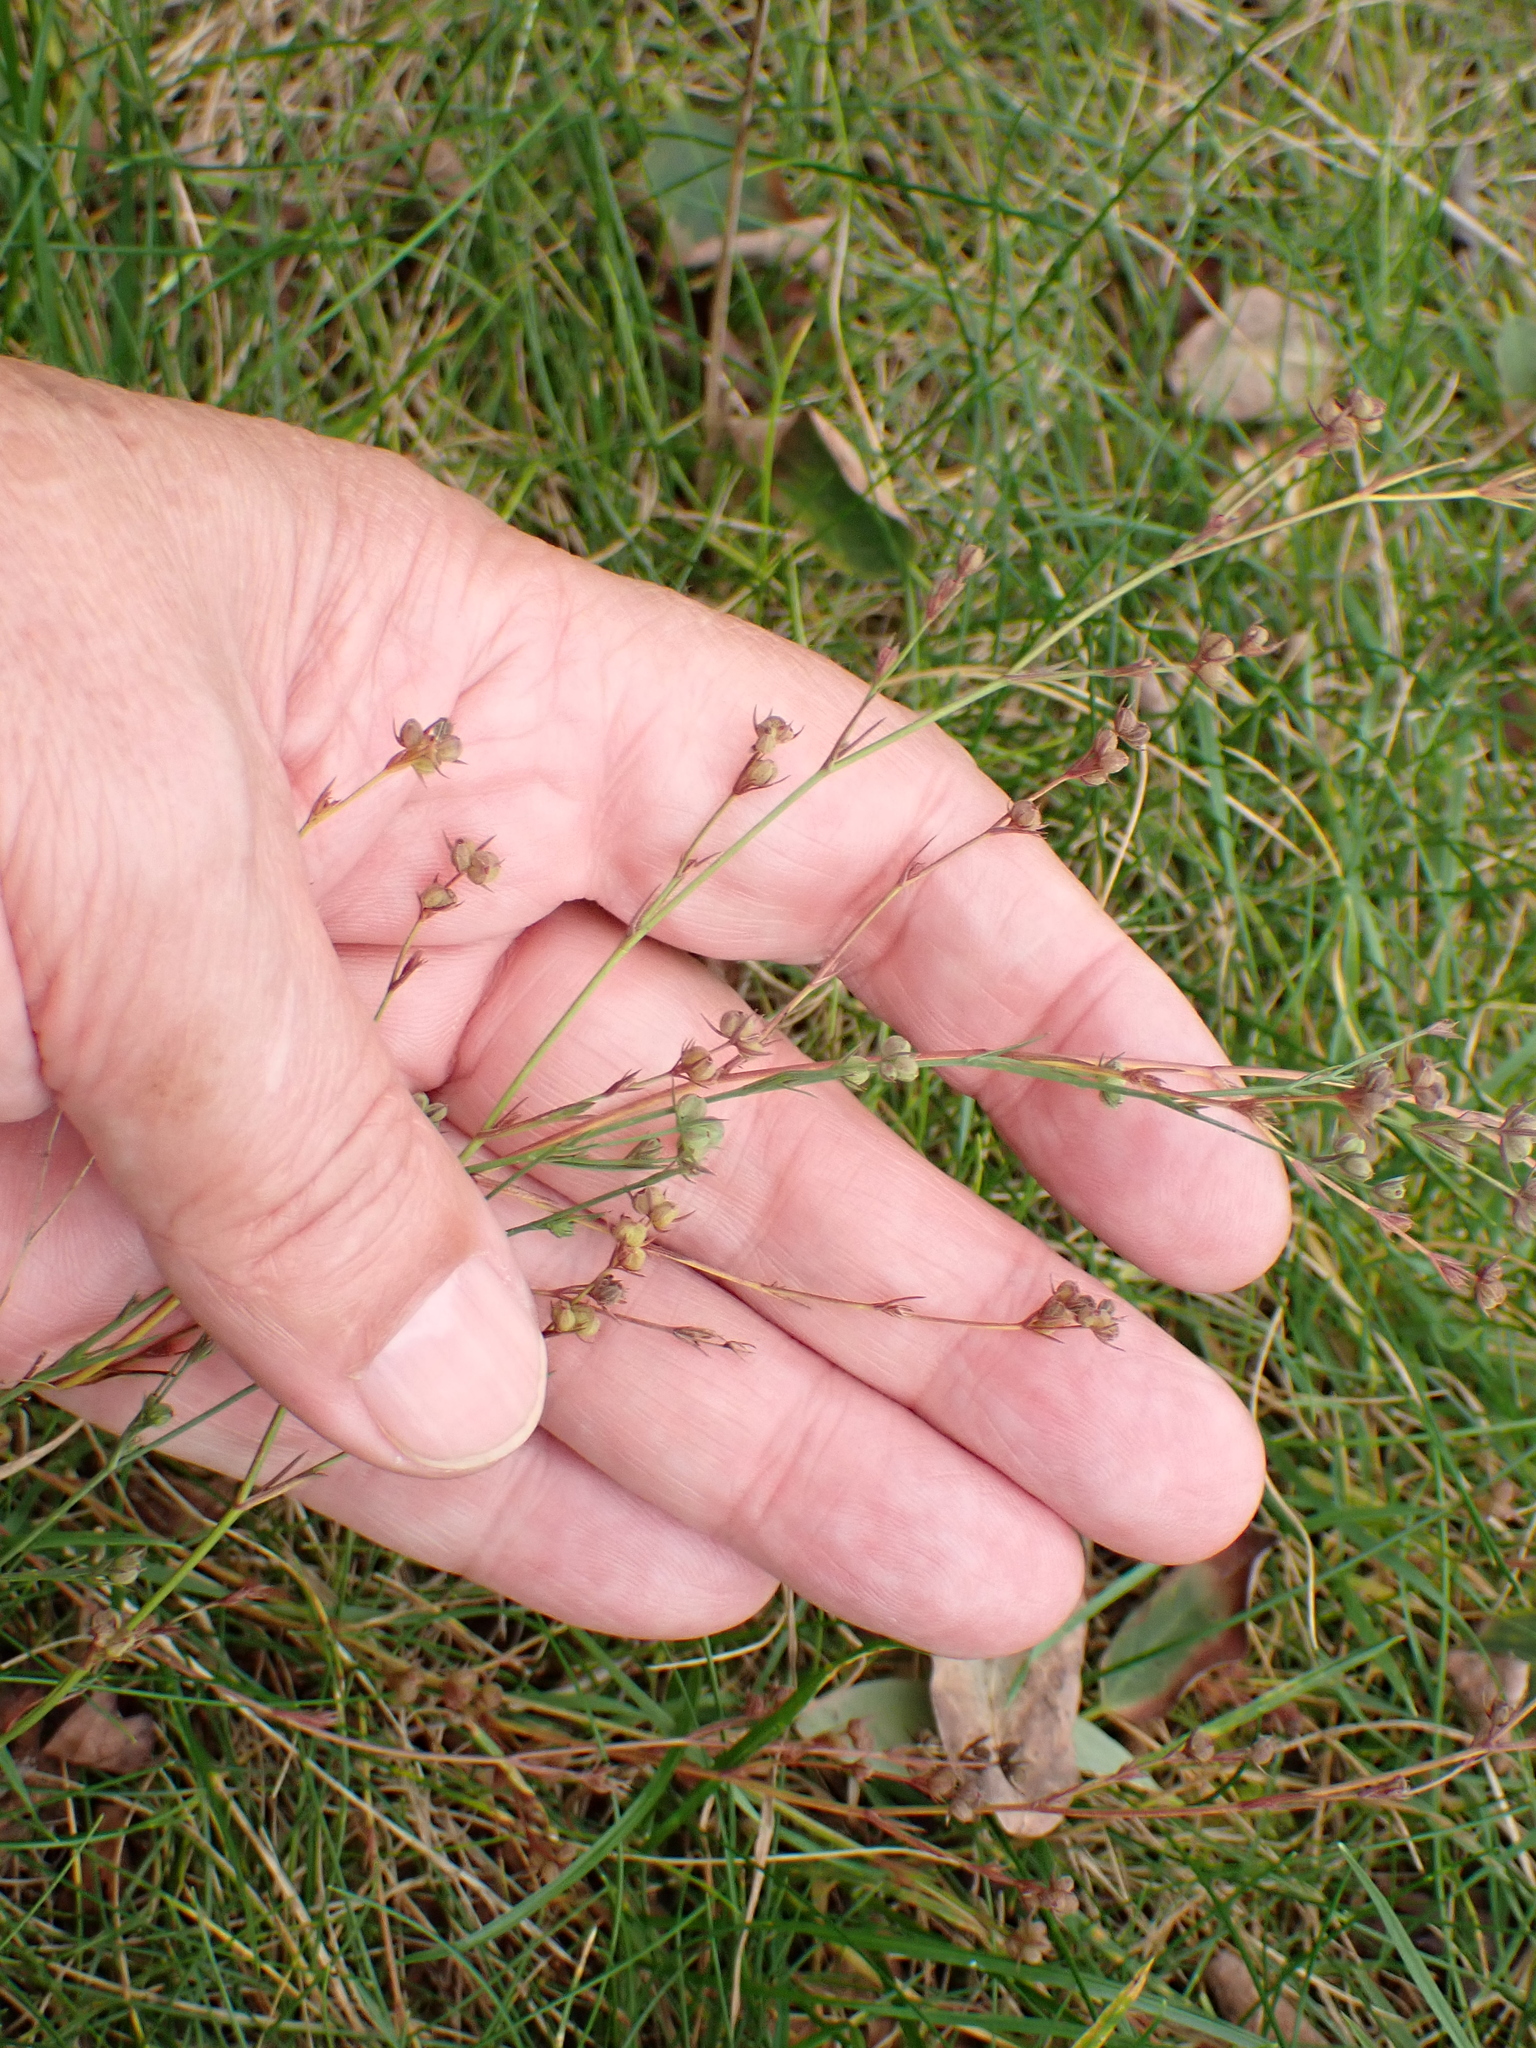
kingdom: Plantae
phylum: Tracheophyta
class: Magnoliopsida
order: Apiales
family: Apiaceae
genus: Bupleurum
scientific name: Bupleurum tenuissimum
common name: Slender hare's-ear
